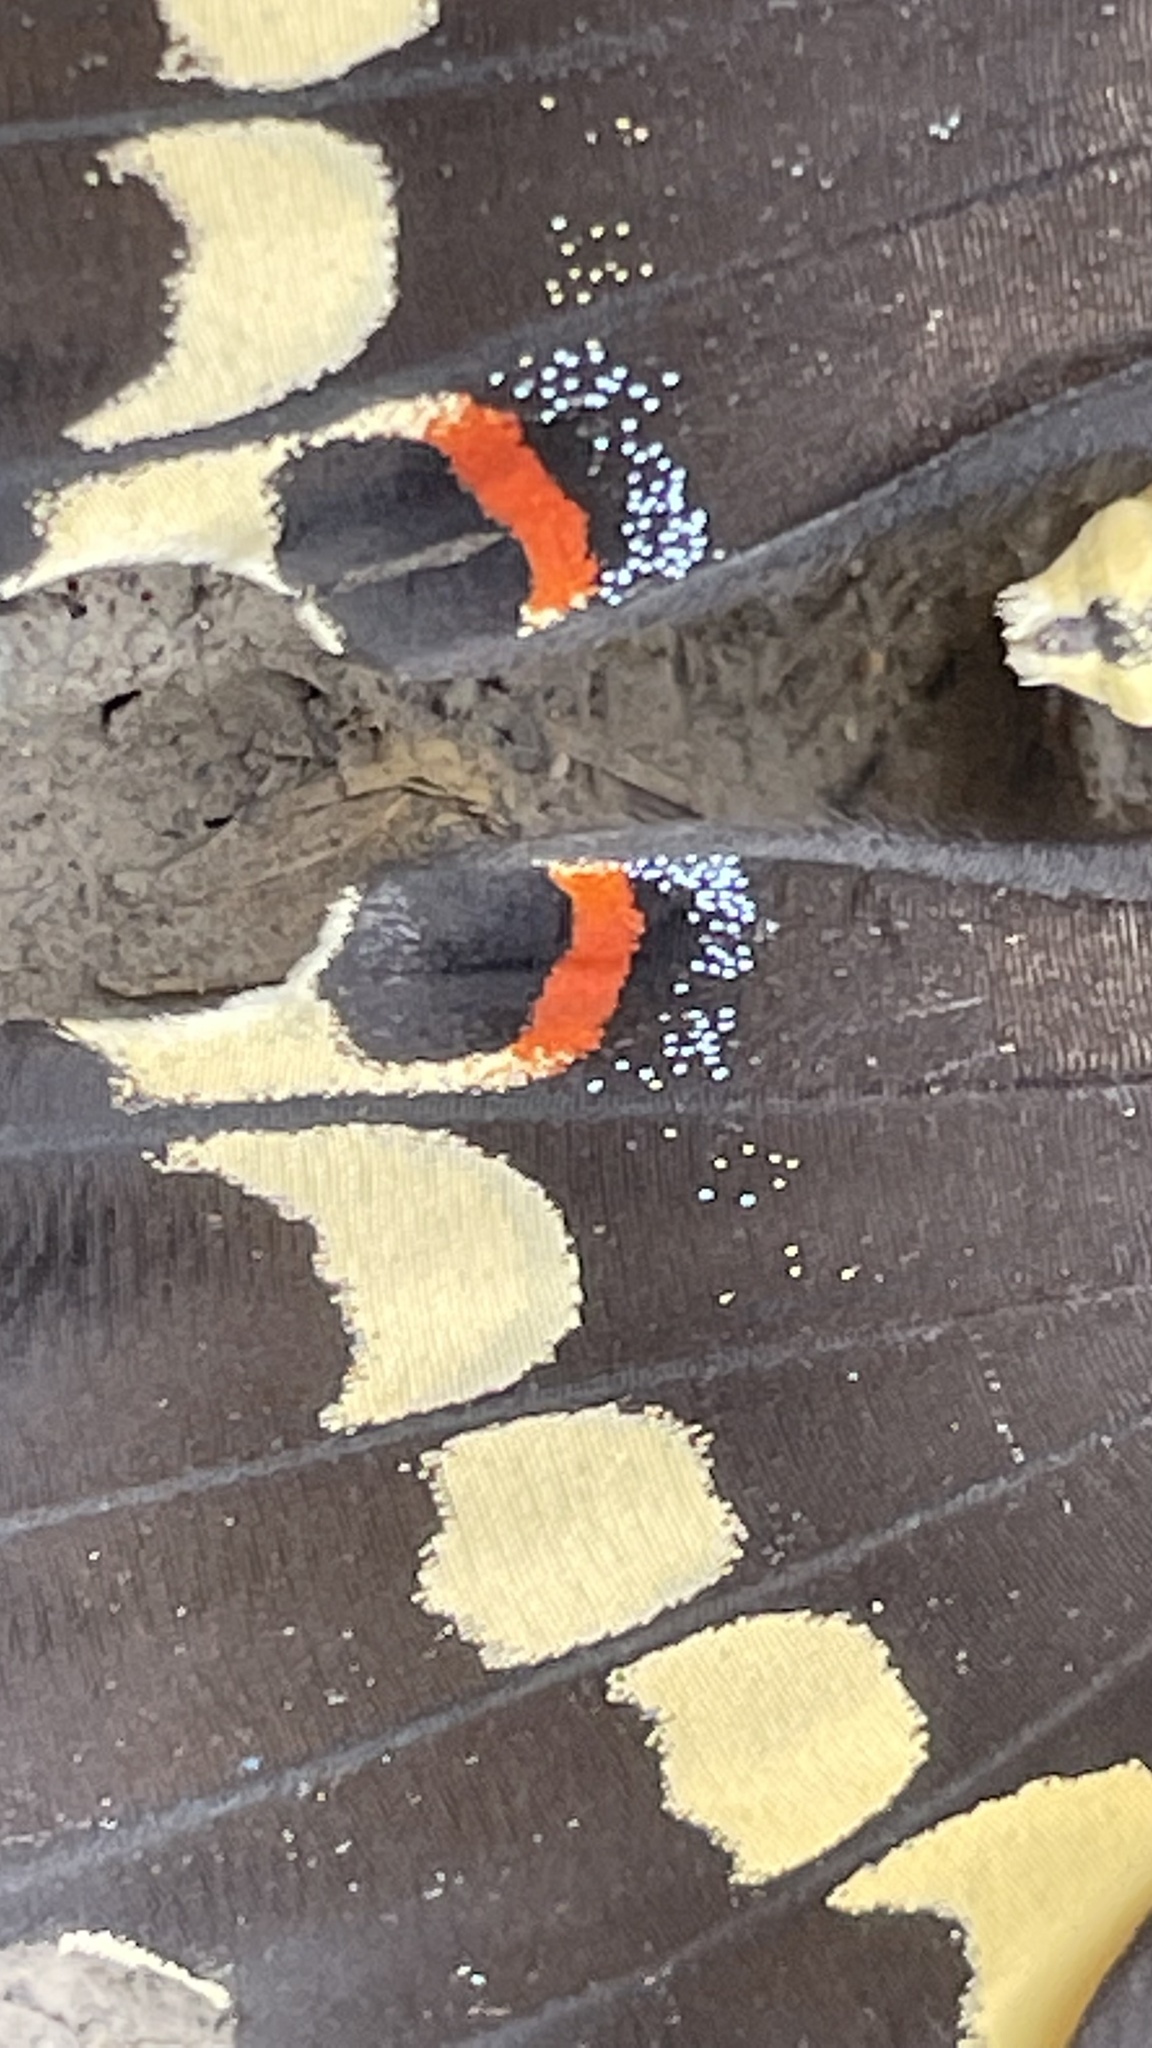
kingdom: Animalia
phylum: Arthropoda
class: Insecta
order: Lepidoptera
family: Papilionidae
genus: Papilio
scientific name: Papilio rumiko
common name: Western giant swallowtail
